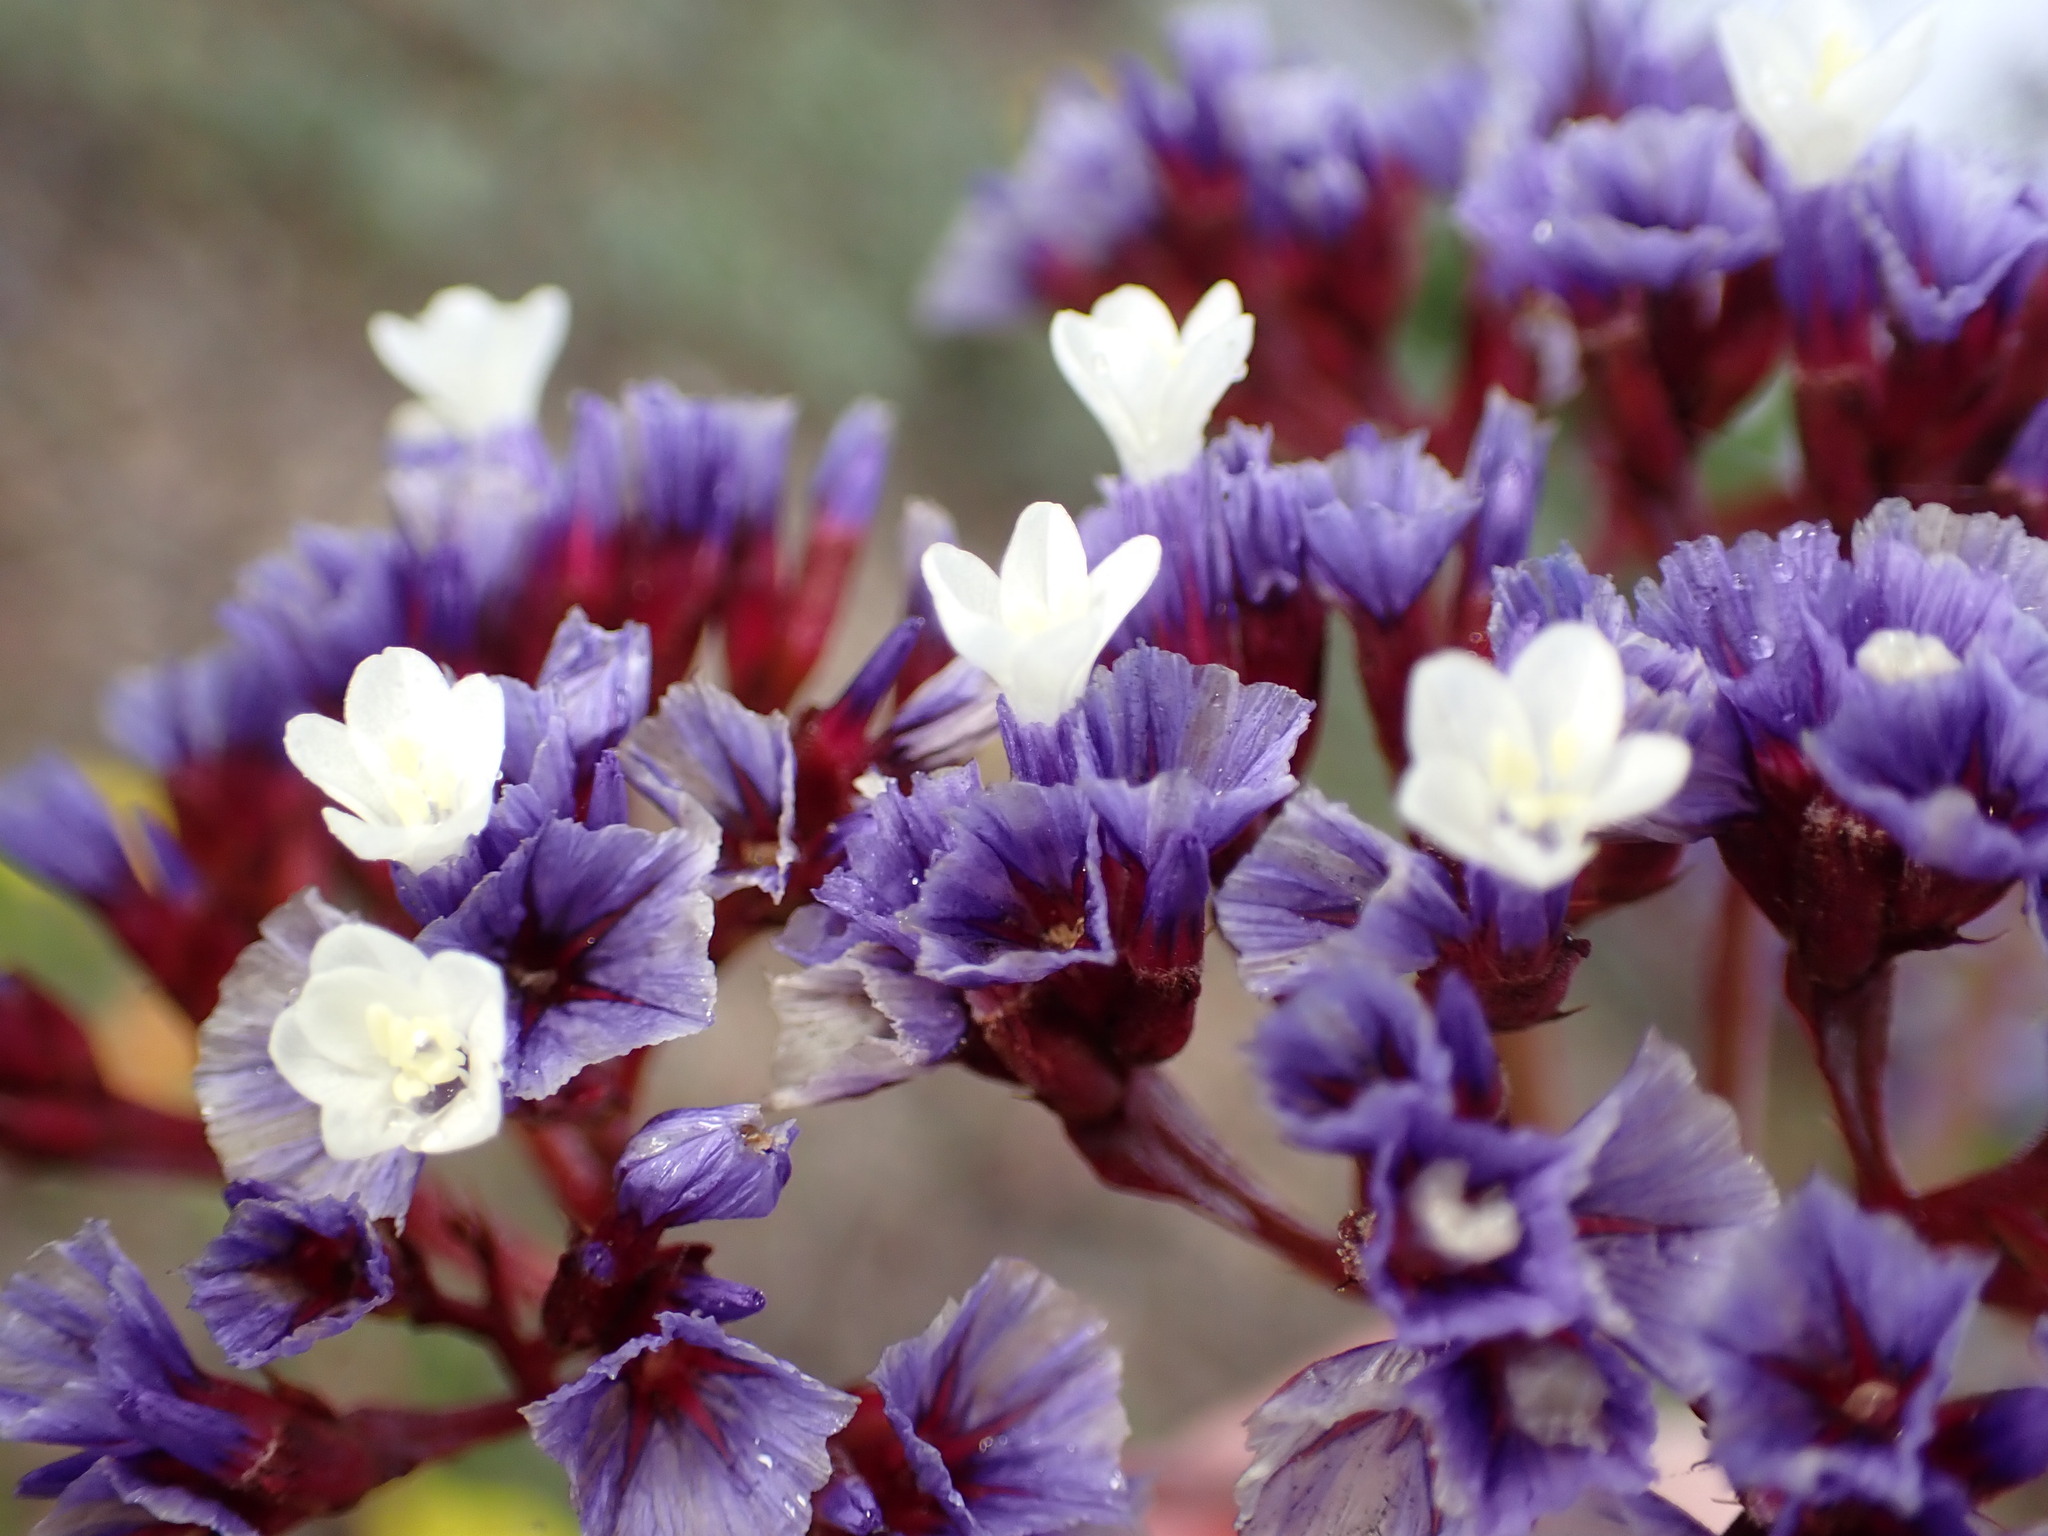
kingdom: Plantae
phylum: Tracheophyta
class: Magnoliopsida
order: Caryophyllales
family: Plumbaginaceae
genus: Limonium
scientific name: Limonium perezii
